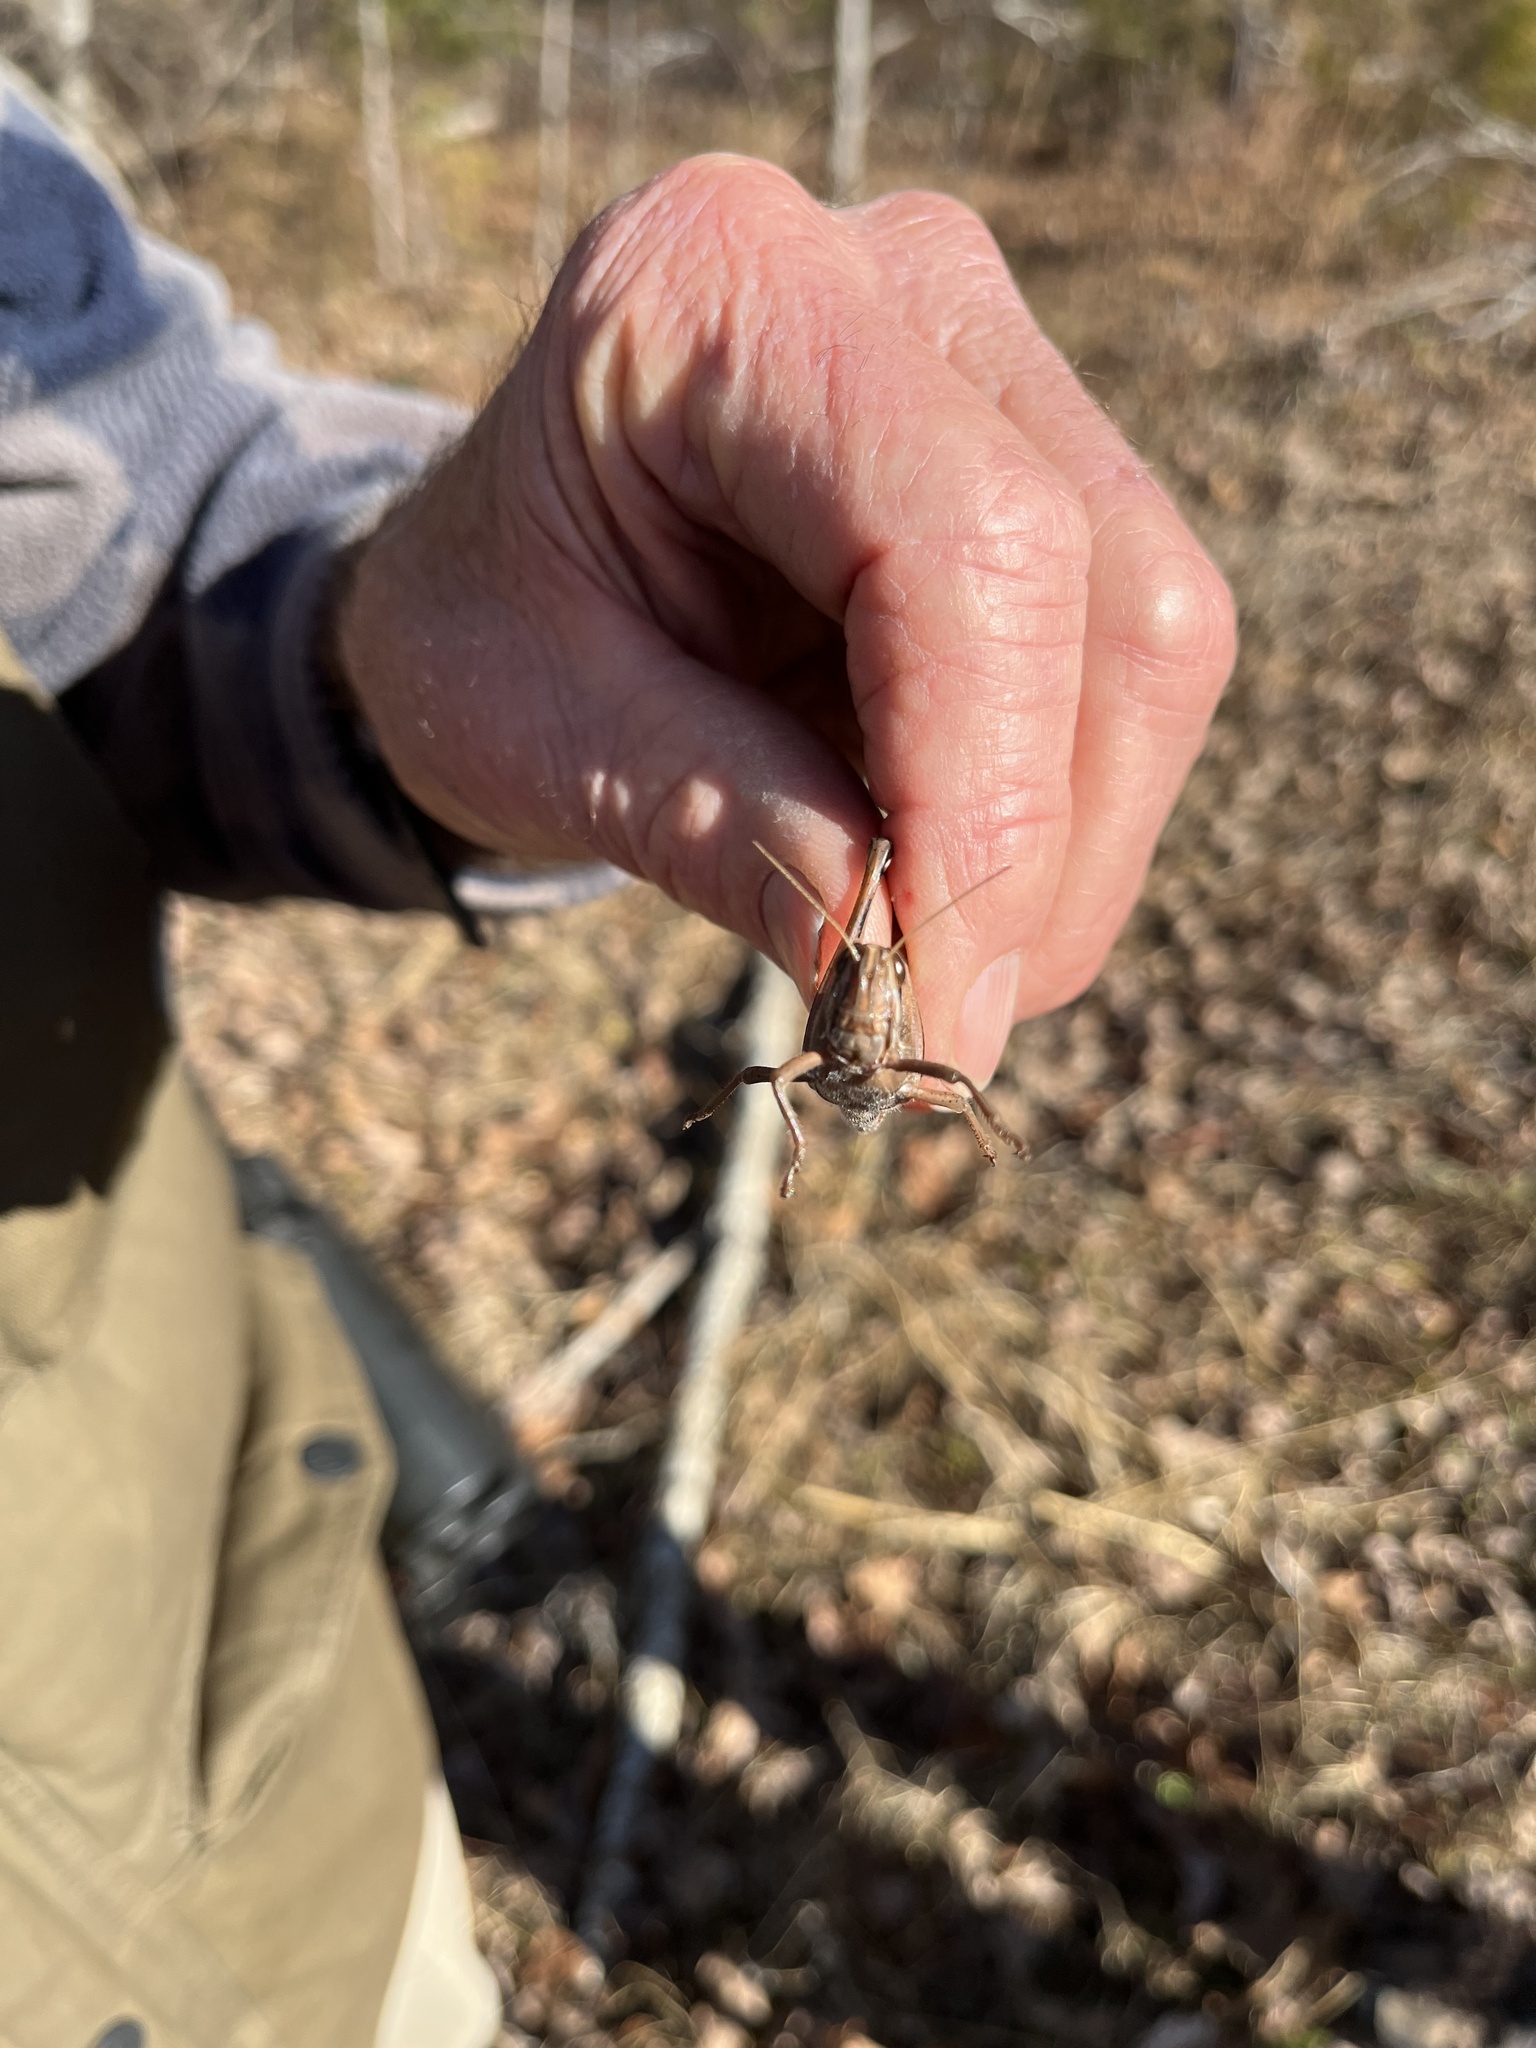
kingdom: Animalia
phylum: Arthropoda
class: Insecta
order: Orthoptera
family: Acrididae
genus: Schistocerca
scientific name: Schistocerca americana
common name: American bird locust
